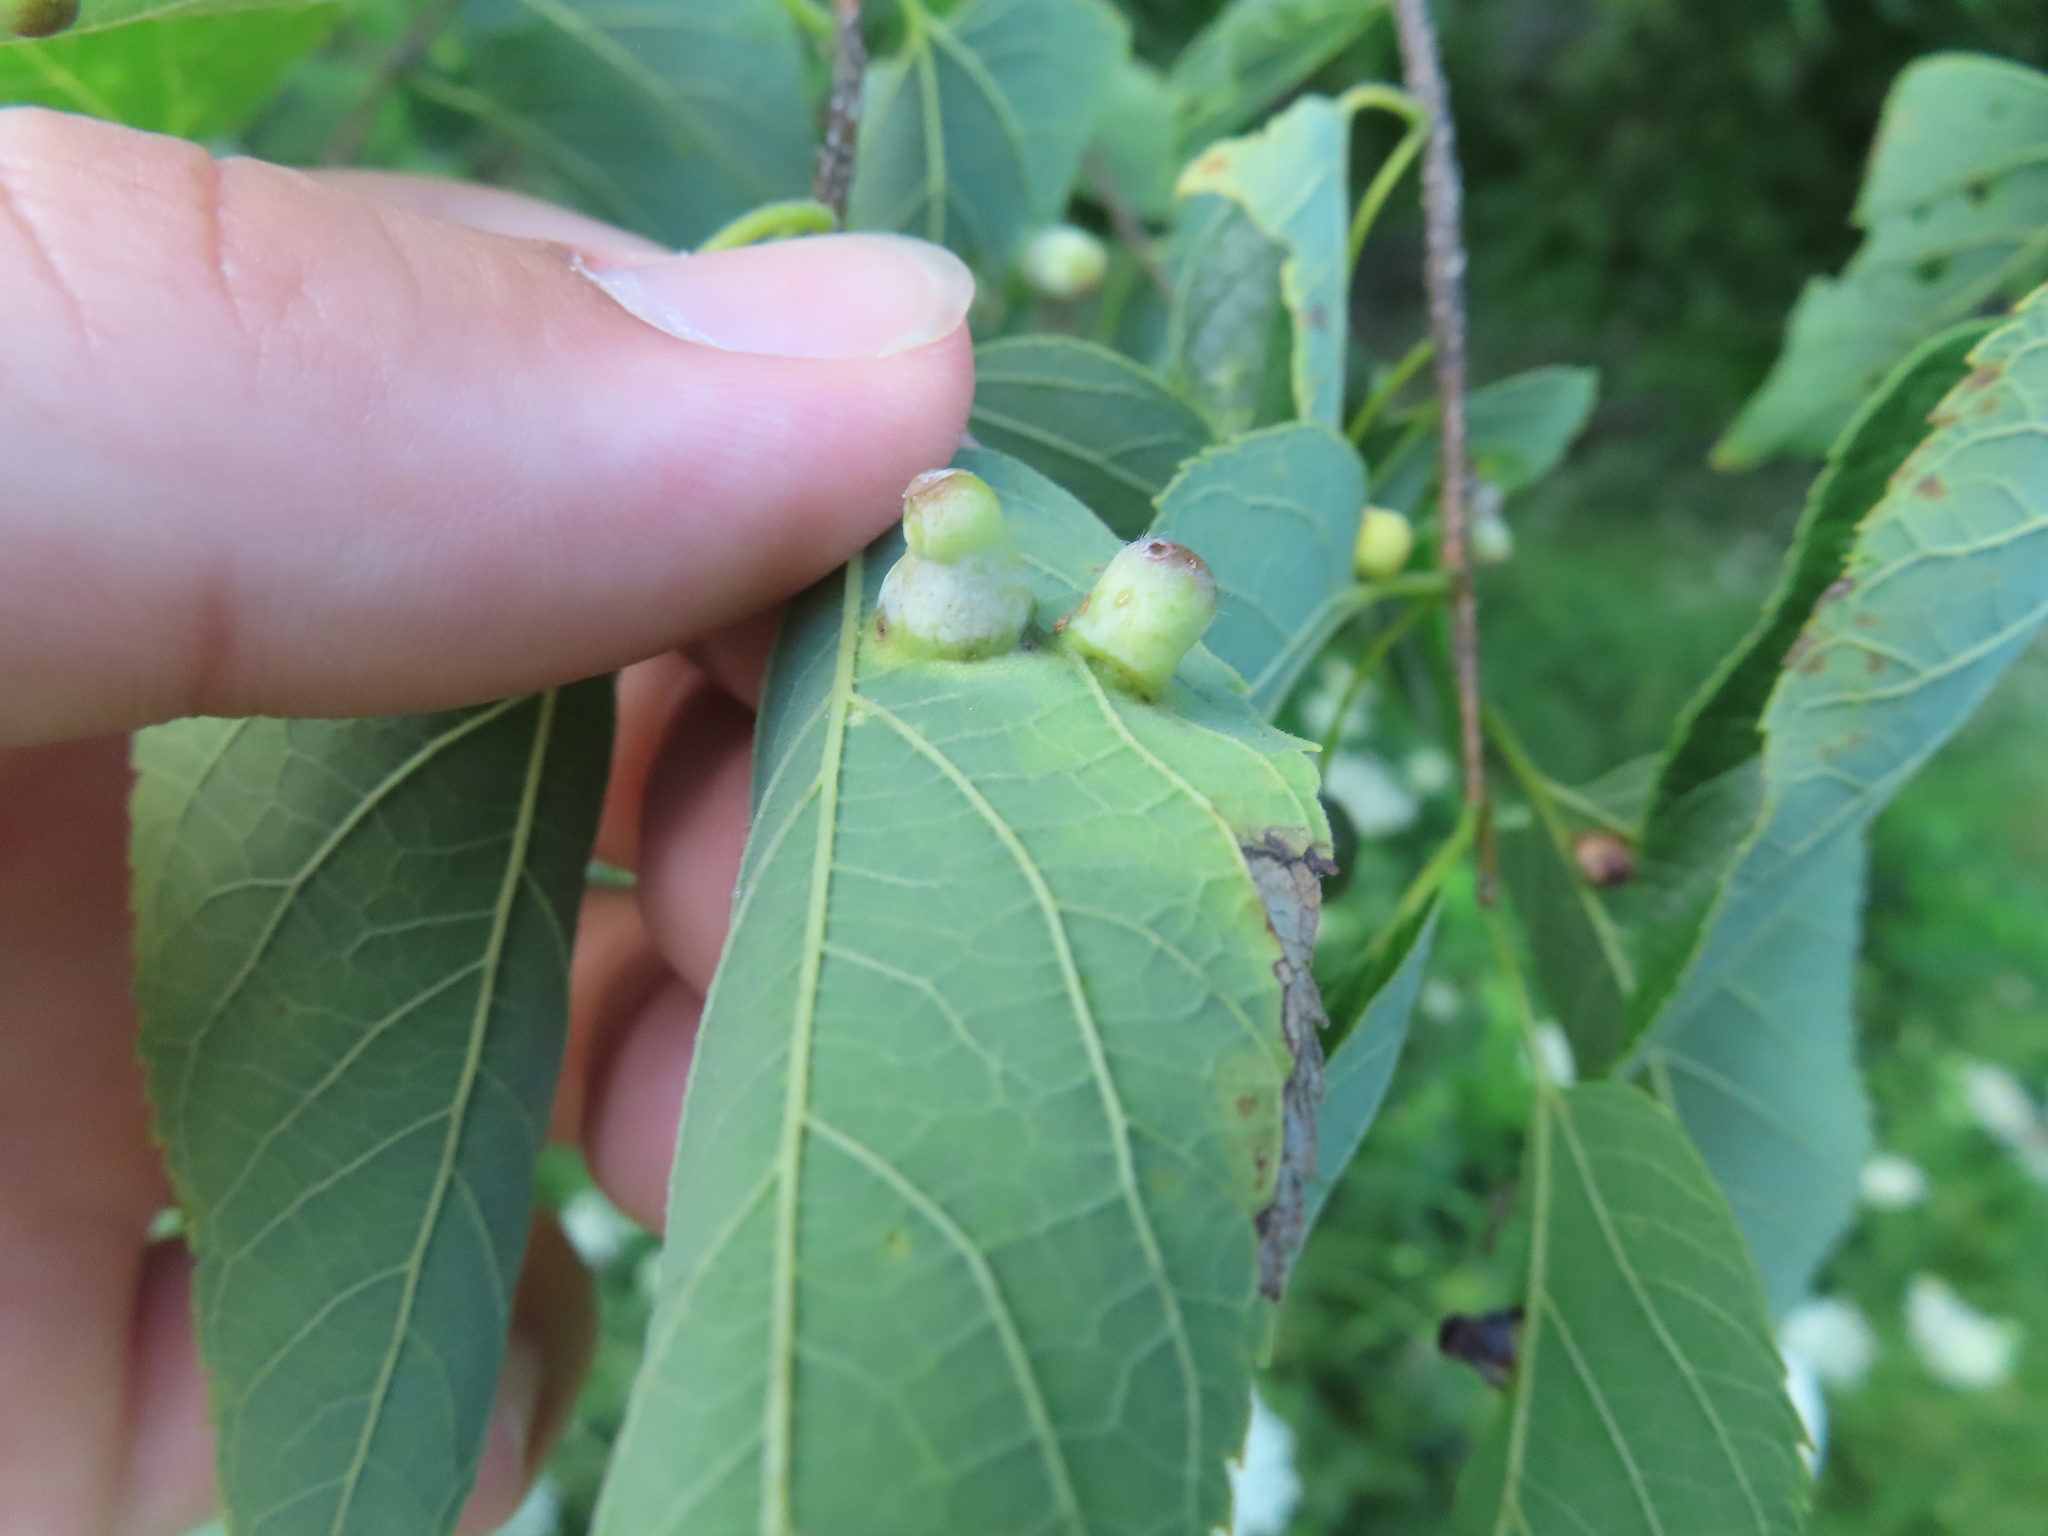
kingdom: Animalia
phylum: Arthropoda
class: Insecta
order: Hemiptera
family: Aphalaridae
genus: Pachypsylla
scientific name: Pachypsylla celtidismamma
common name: Hackberry nipplegall psyllid
